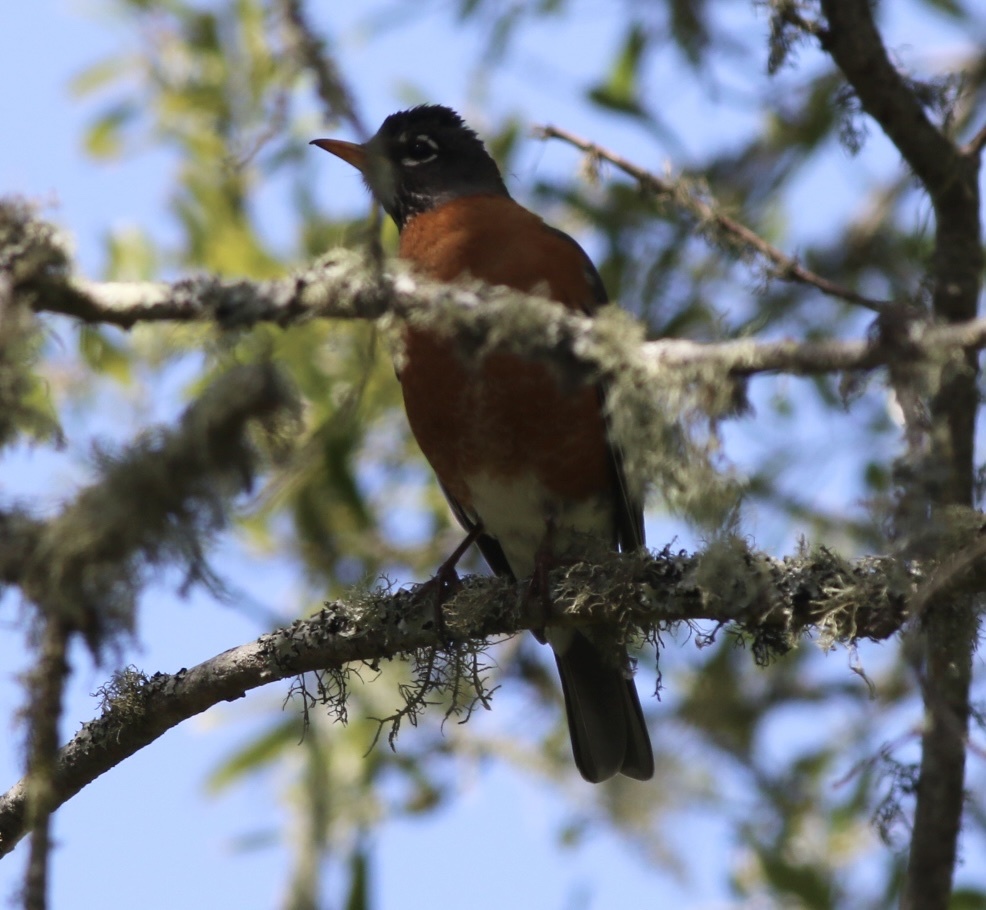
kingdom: Animalia
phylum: Chordata
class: Aves
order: Passeriformes
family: Turdidae
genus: Turdus
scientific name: Turdus migratorius
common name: American robin
